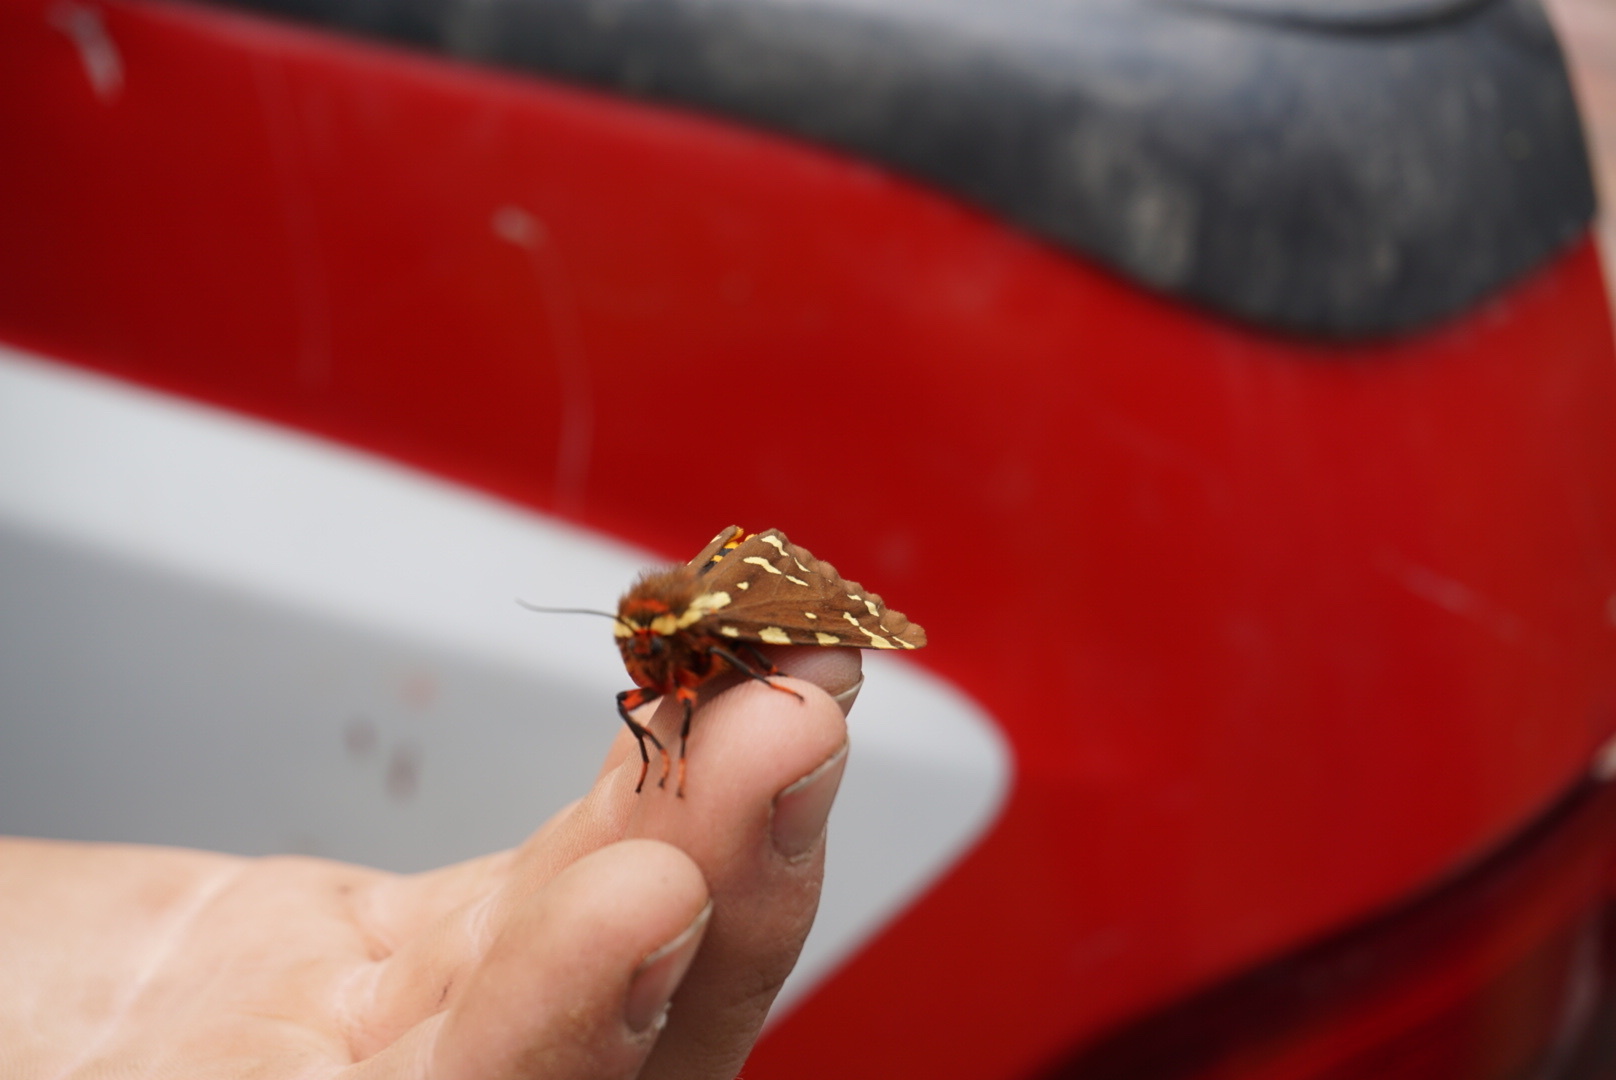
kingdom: Animalia
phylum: Arthropoda
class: Insecta
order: Lepidoptera
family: Erebidae
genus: Arctia
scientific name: Arctia parthenos
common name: St. lawrence tiger moth
